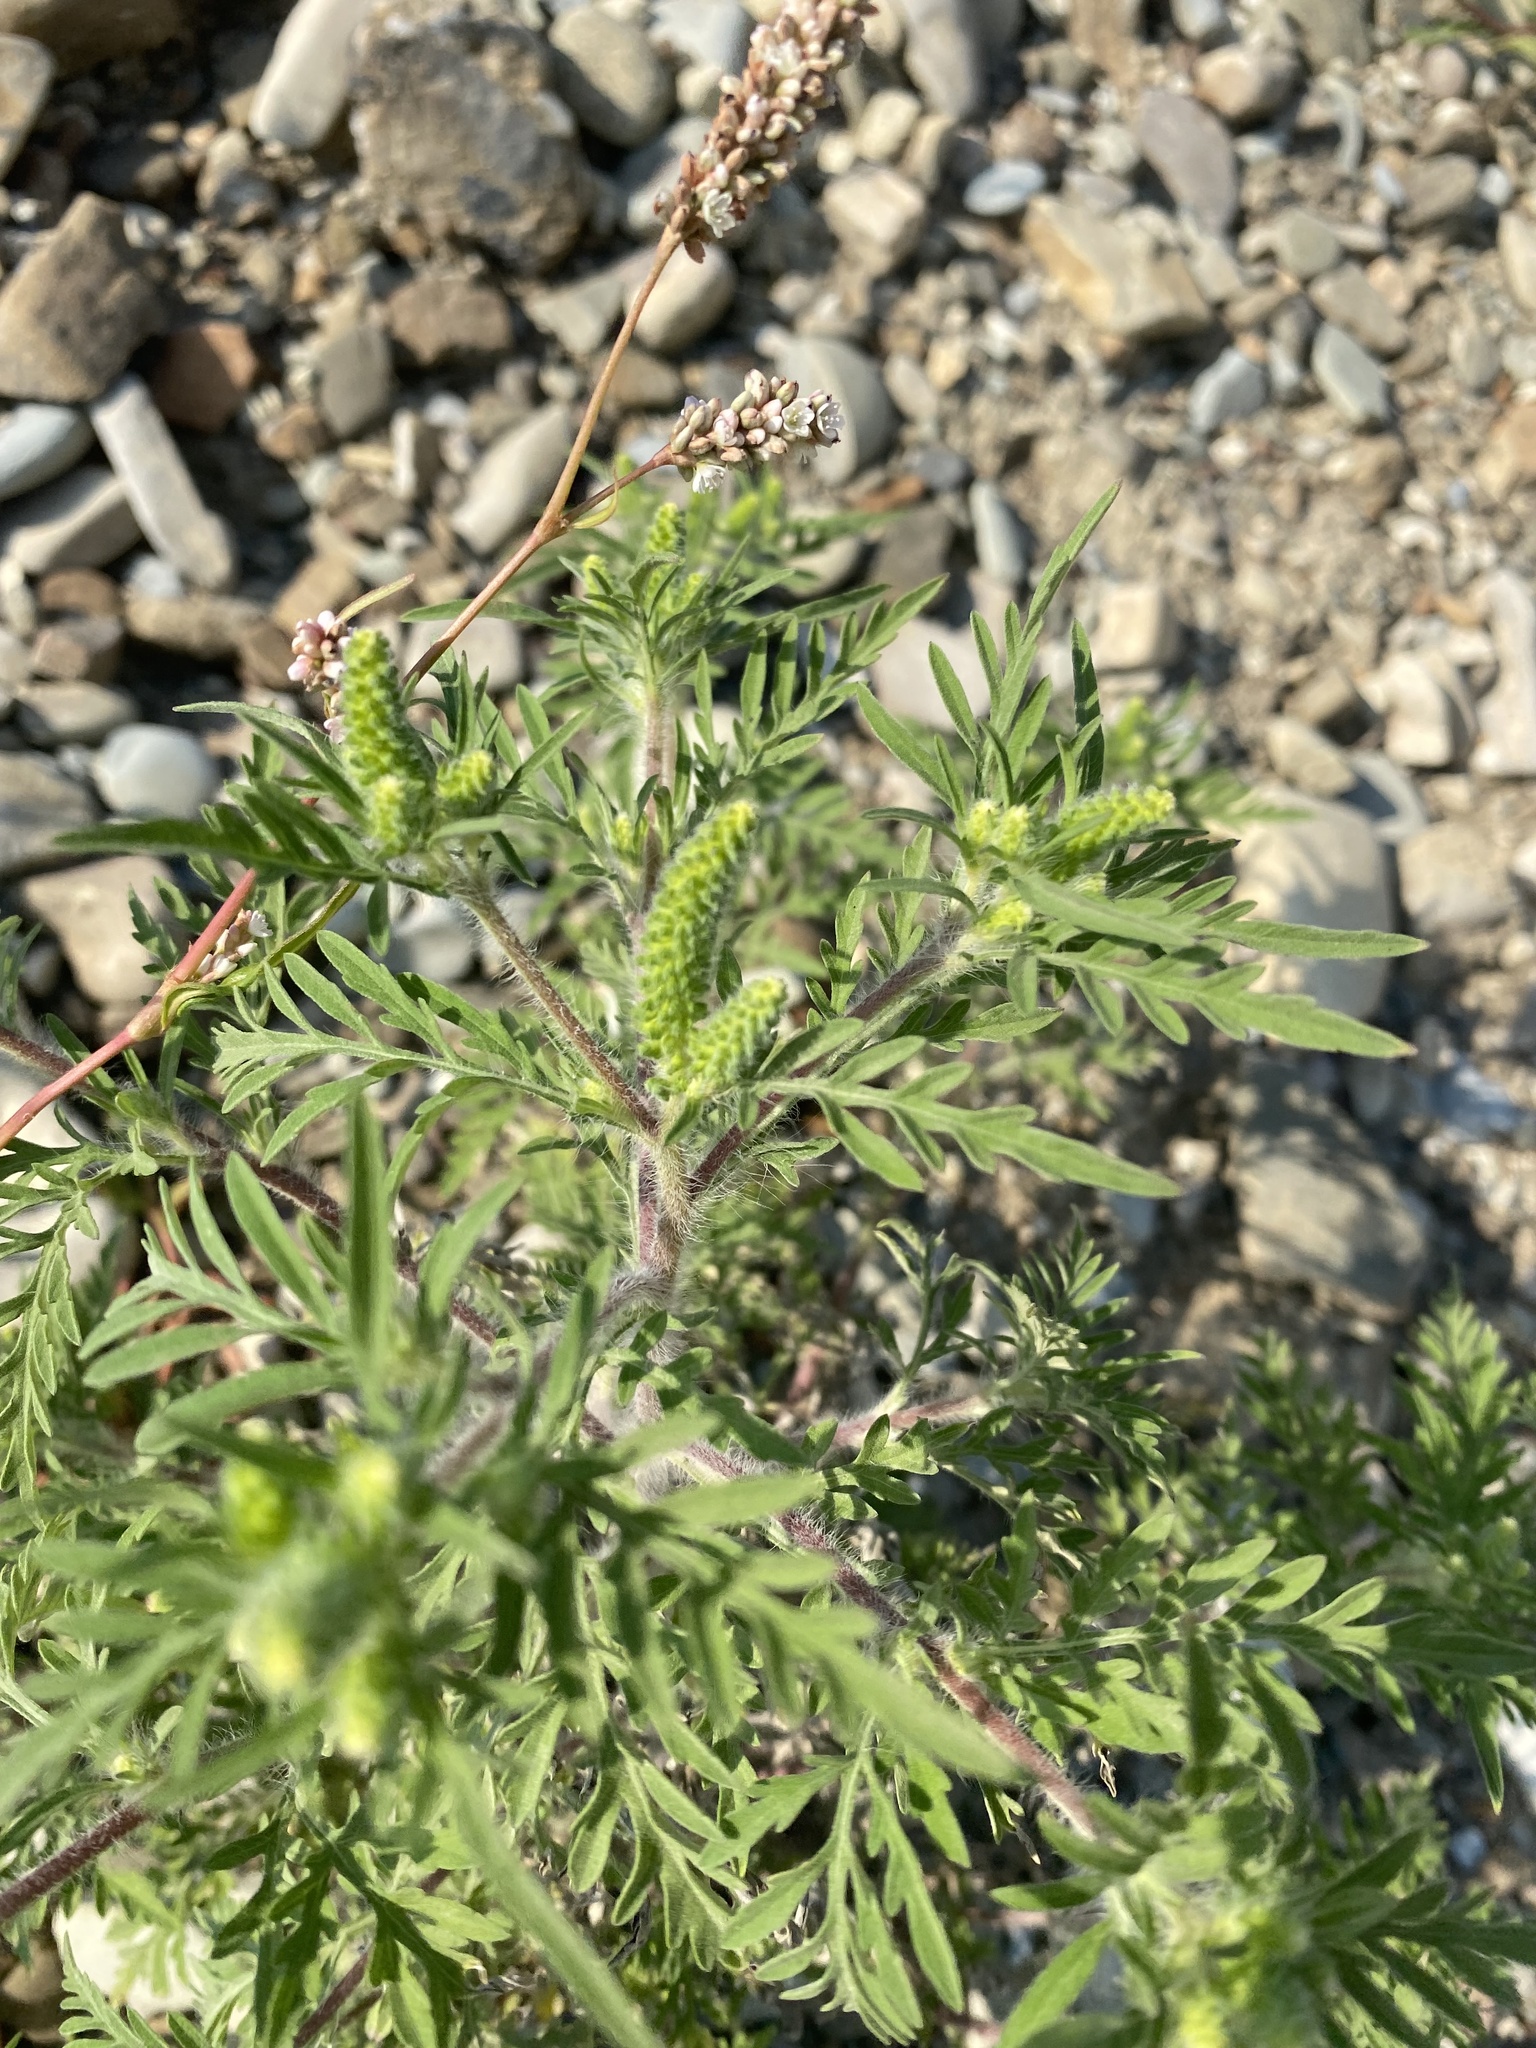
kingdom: Plantae
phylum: Tracheophyta
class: Magnoliopsida
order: Asterales
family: Asteraceae
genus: Ambrosia
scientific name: Ambrosia artemisiifolia
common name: Annual ragweed
